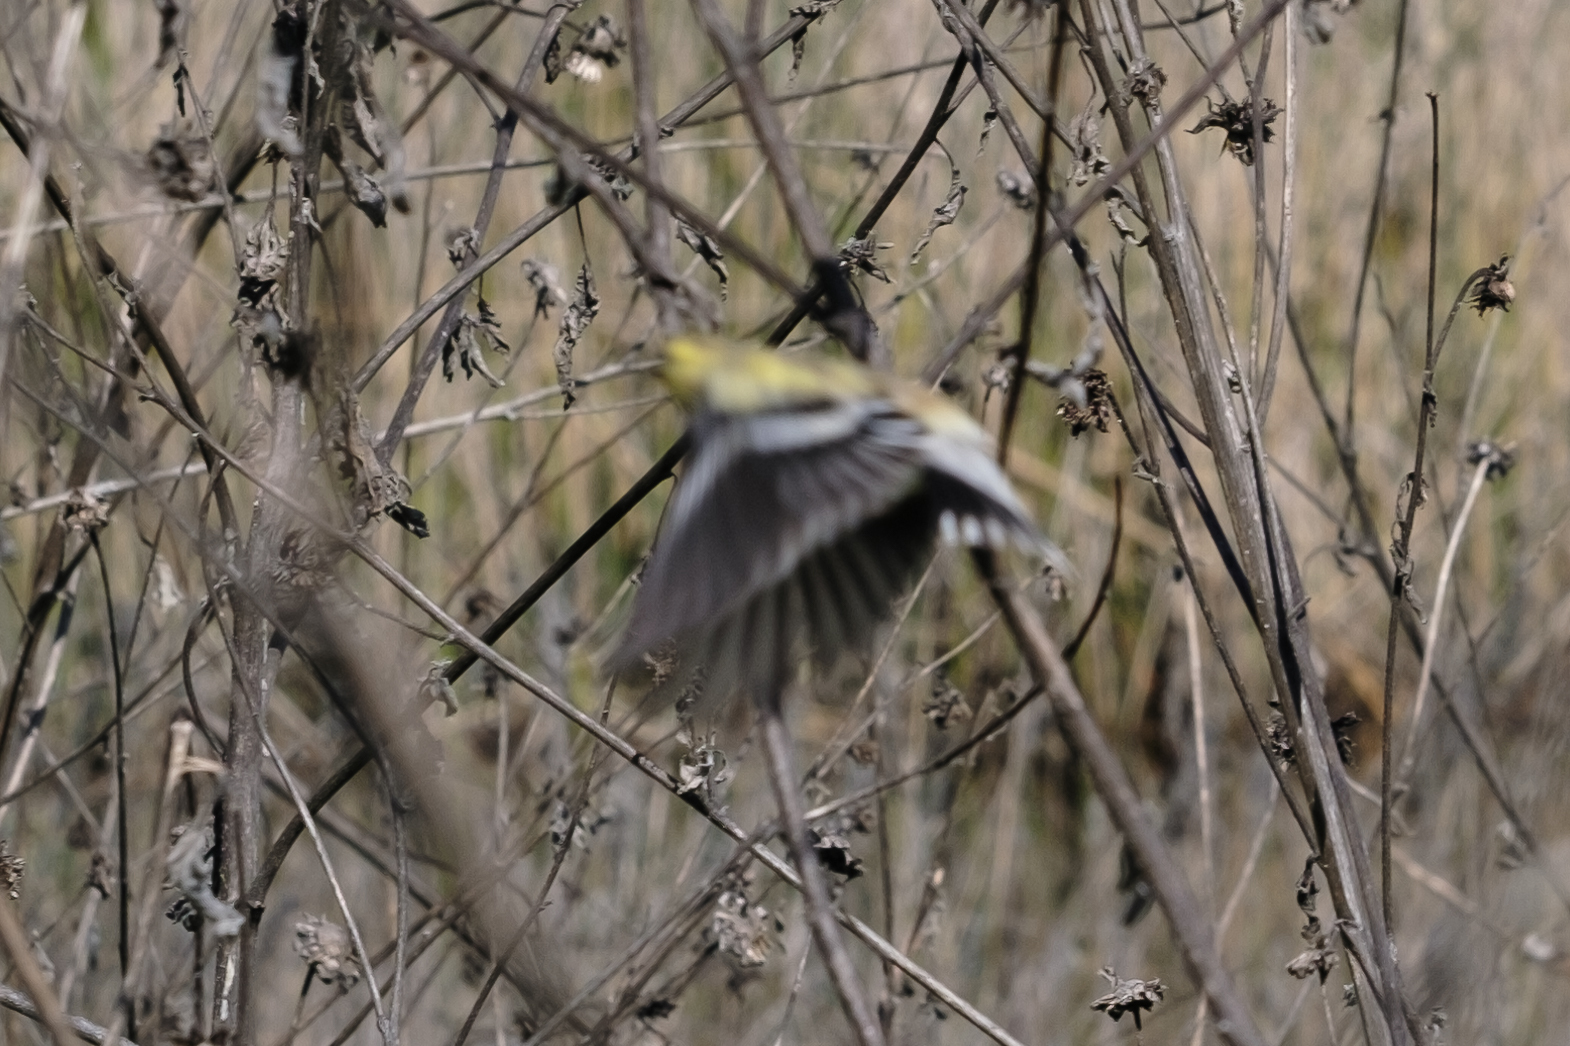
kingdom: Animalia
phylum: Chordata
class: Aves
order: Passeriformes
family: Fringillidae
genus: Spinus
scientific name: Spinus tristis
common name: American goldfinch
